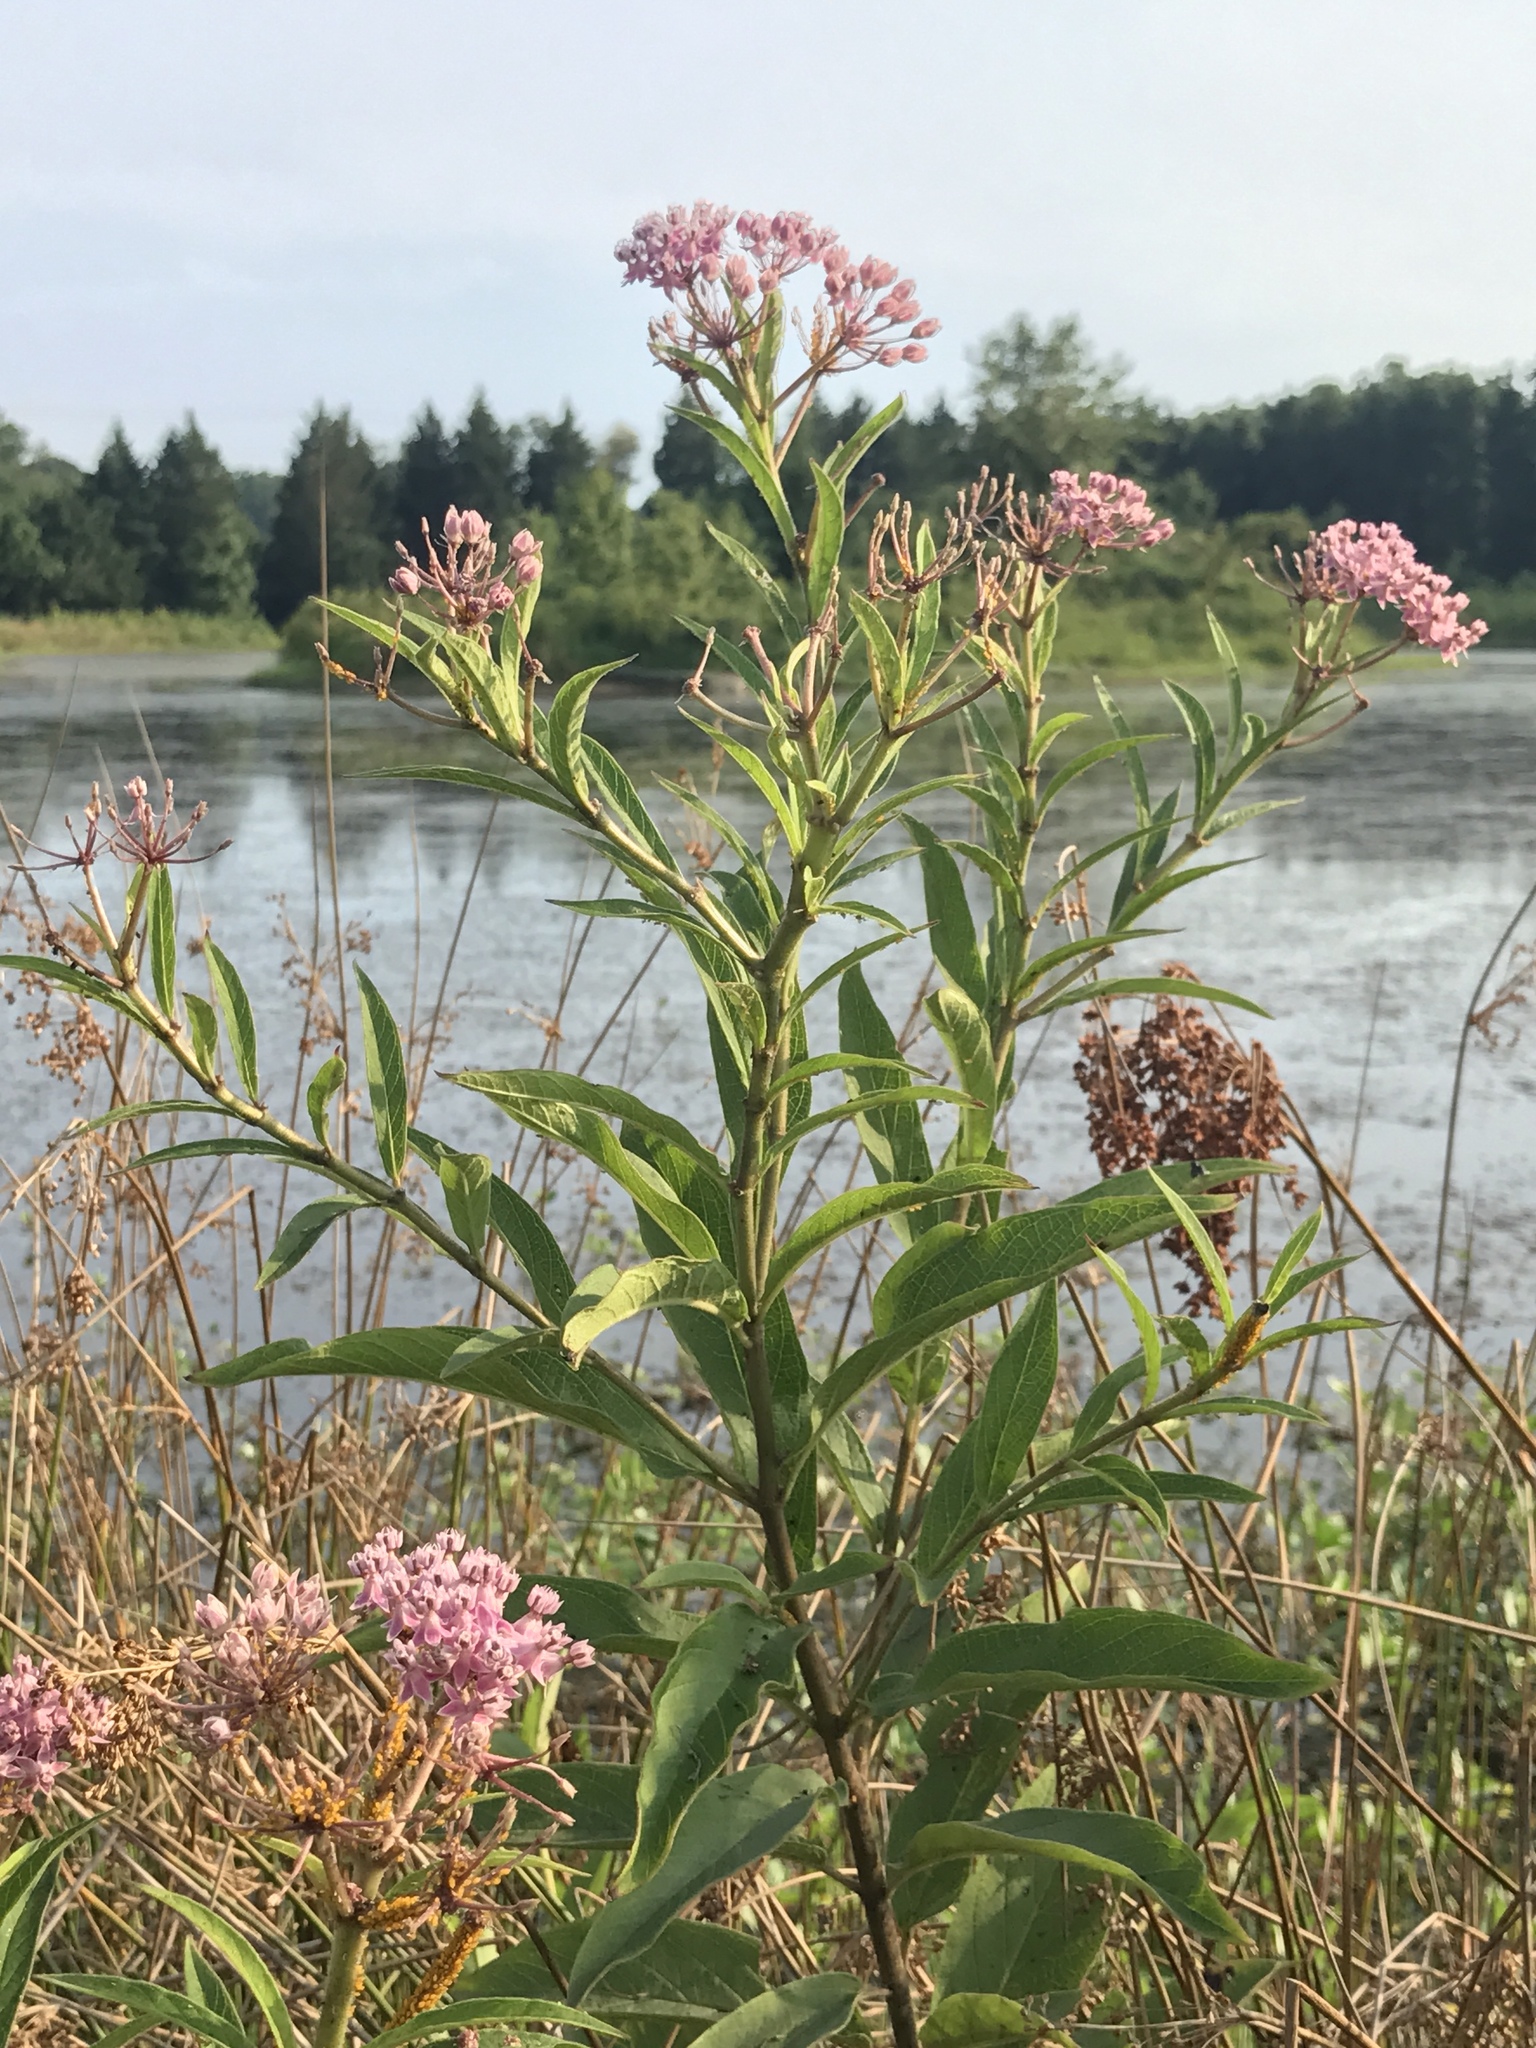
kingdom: Plantae
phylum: Tracheophyta
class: Magnoliopsida
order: Gentianales
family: Apocynaceae
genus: Asclepias
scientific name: Asclepias incarnata
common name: Swamp milkweed
